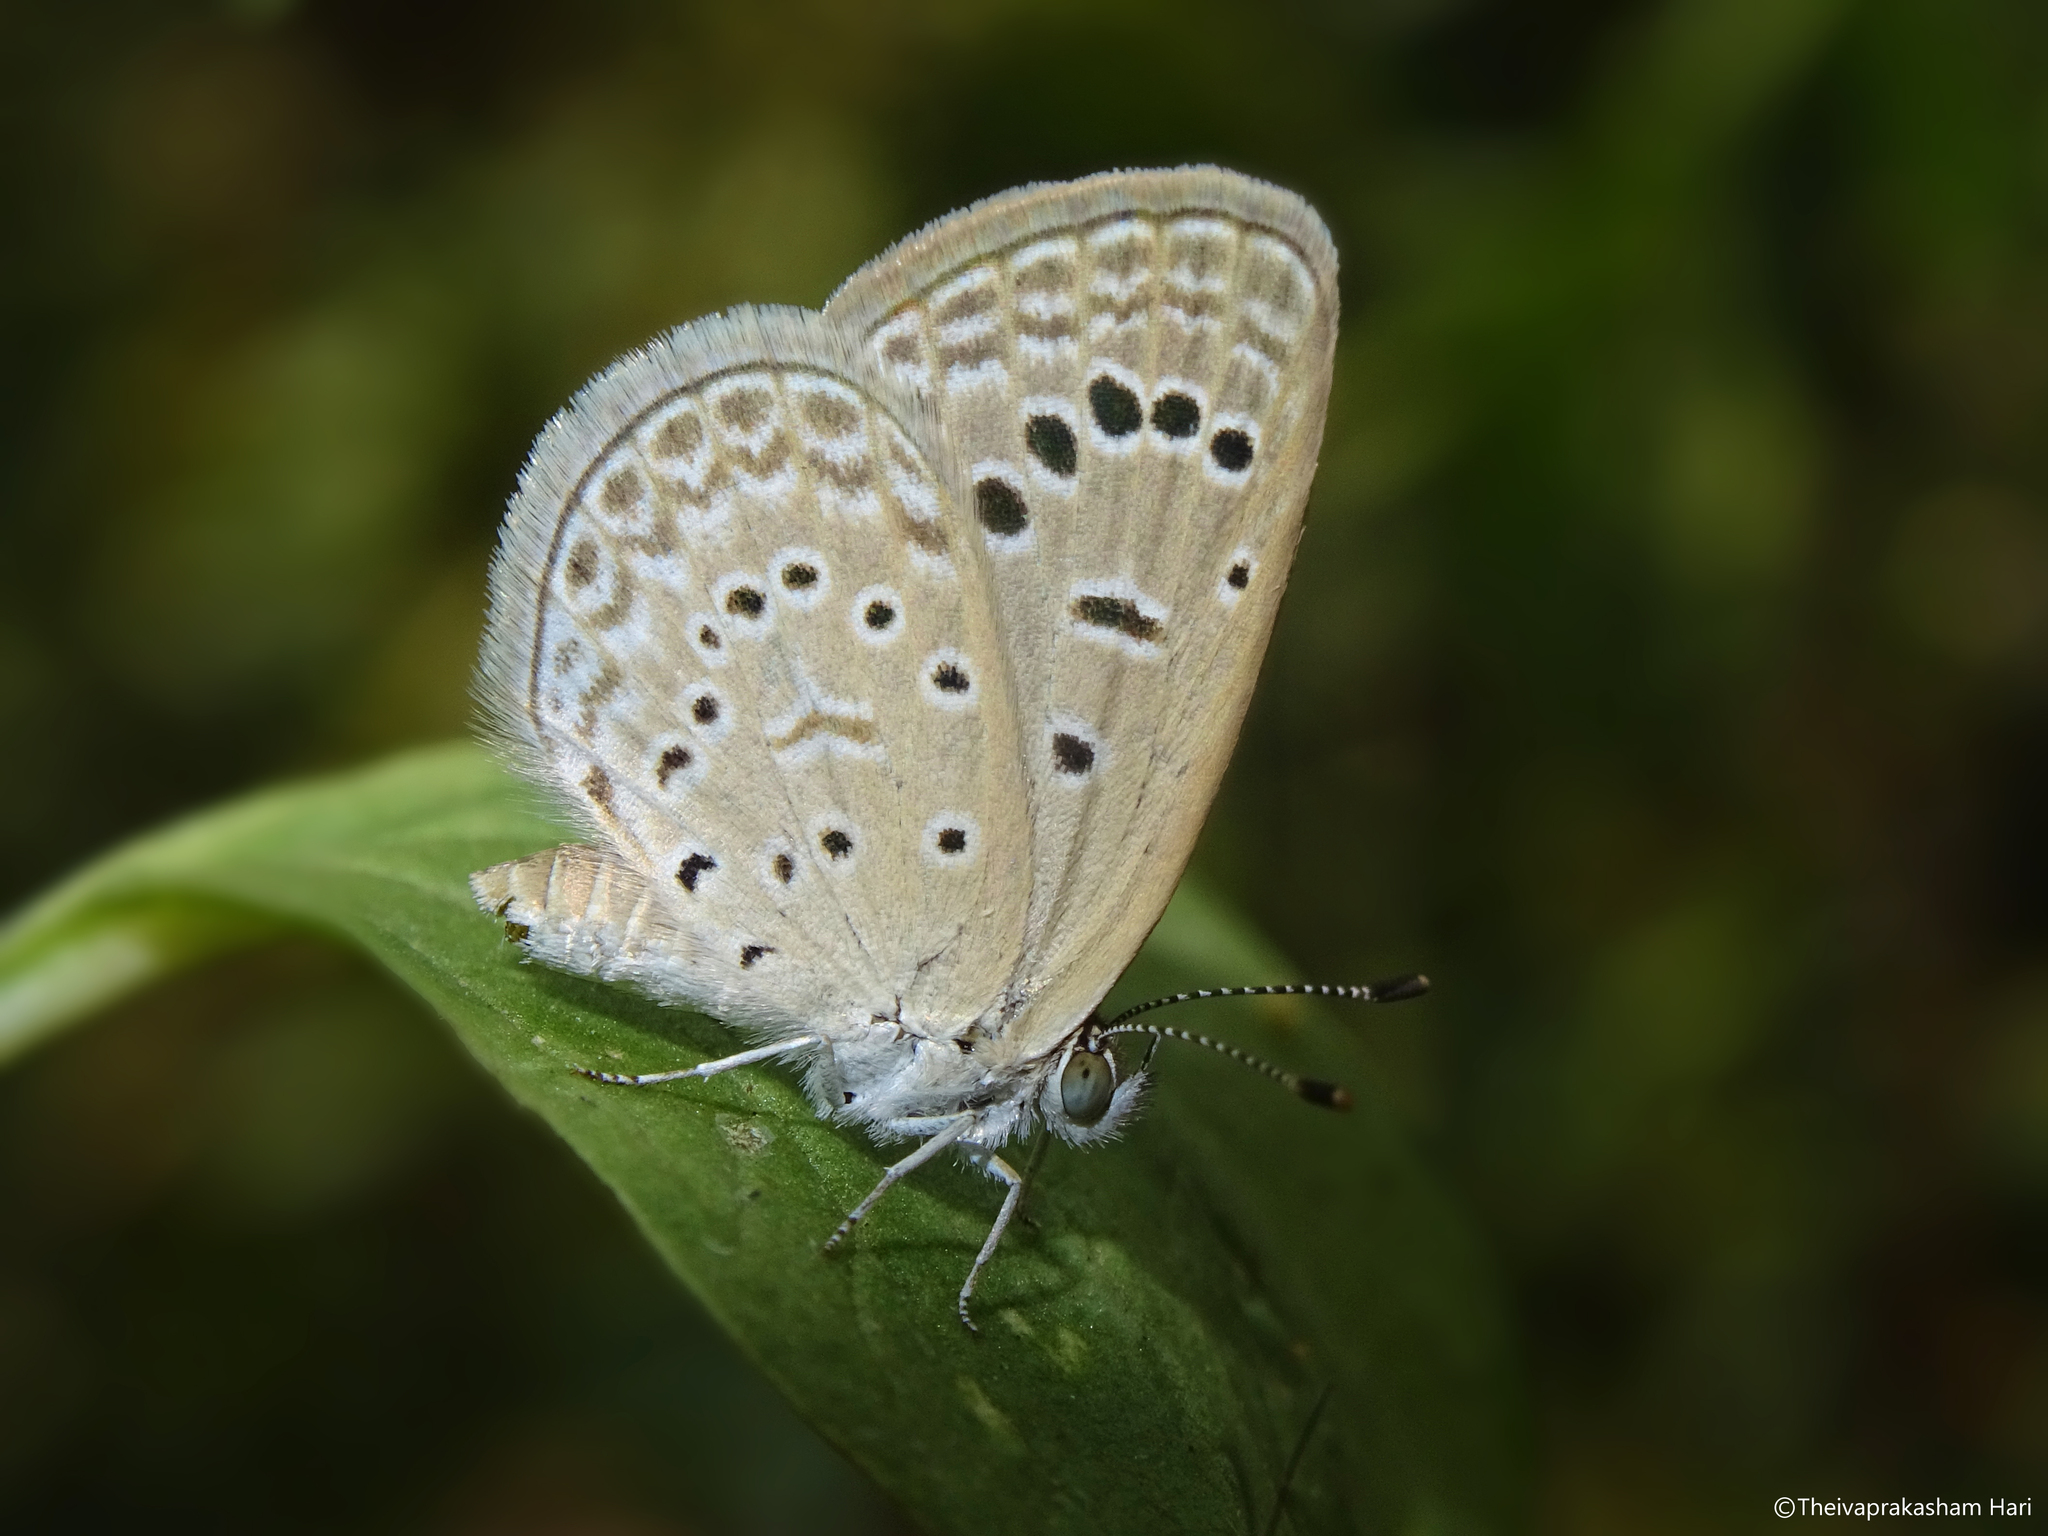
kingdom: Animalia
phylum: Arthropoda
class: Insecta
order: Lepidoptera
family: Lycaenidae
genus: Zizeeria
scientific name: Zizeeria karsandra
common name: Dark grass blue
